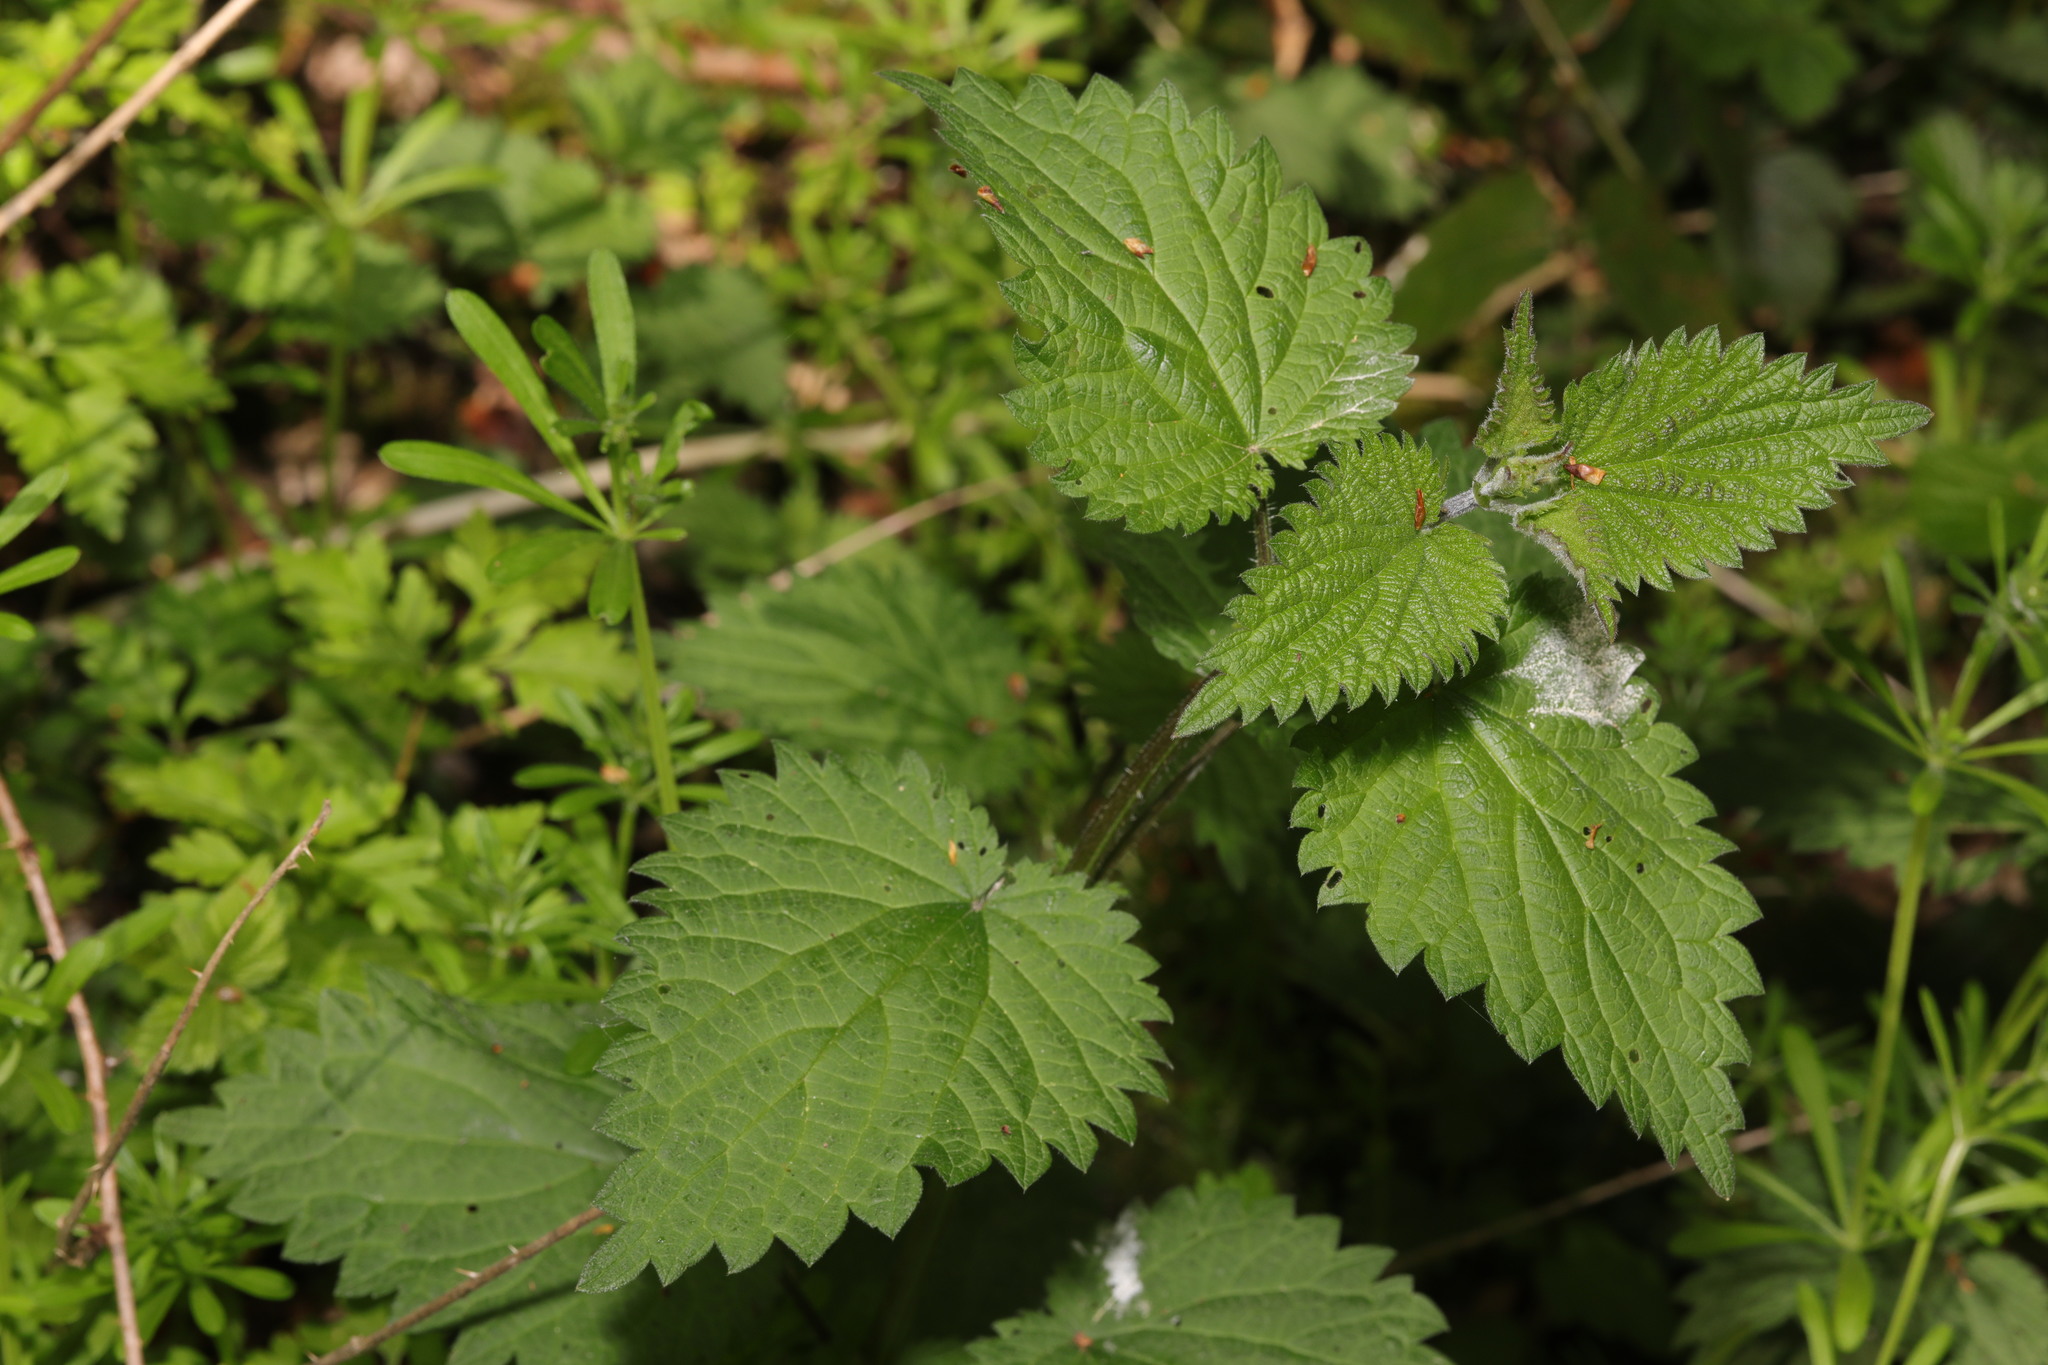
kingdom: Plantae
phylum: Tracheophyta
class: Magnoliopsida
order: Rosales
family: Urticaceae
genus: Urtica
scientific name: Urtica dioica
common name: Common nettle
